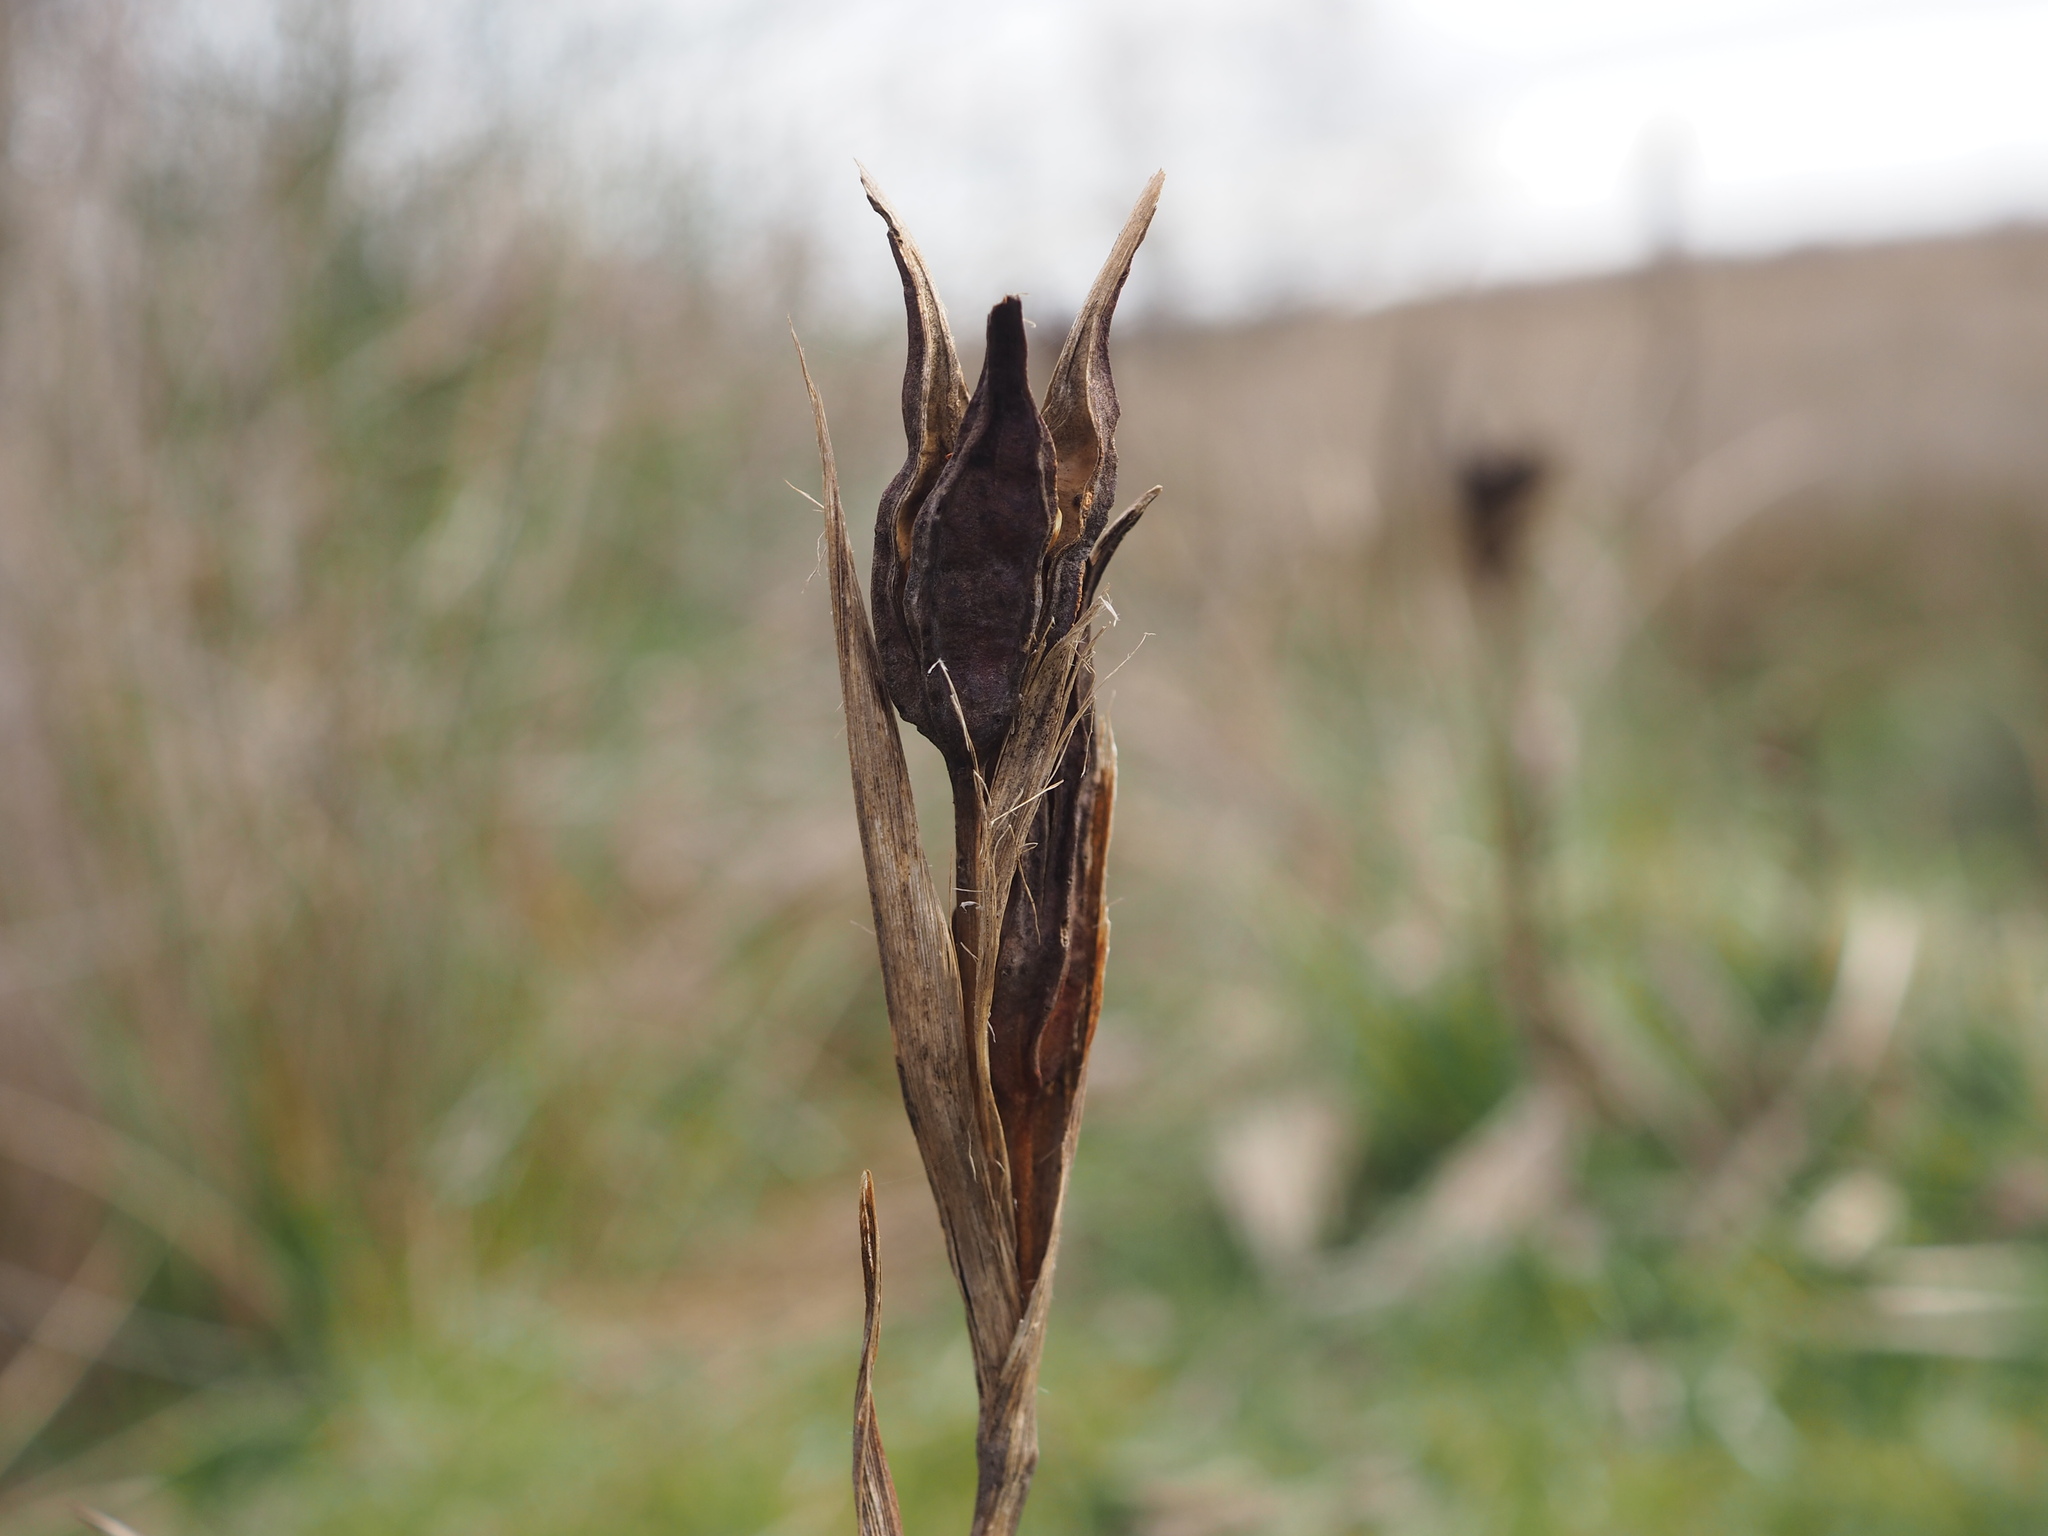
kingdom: Plantae
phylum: Tracheophyta
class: Liliopsida
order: Asparagales
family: Iridaceae
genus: Iris
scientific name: Iris reichenbachiana
